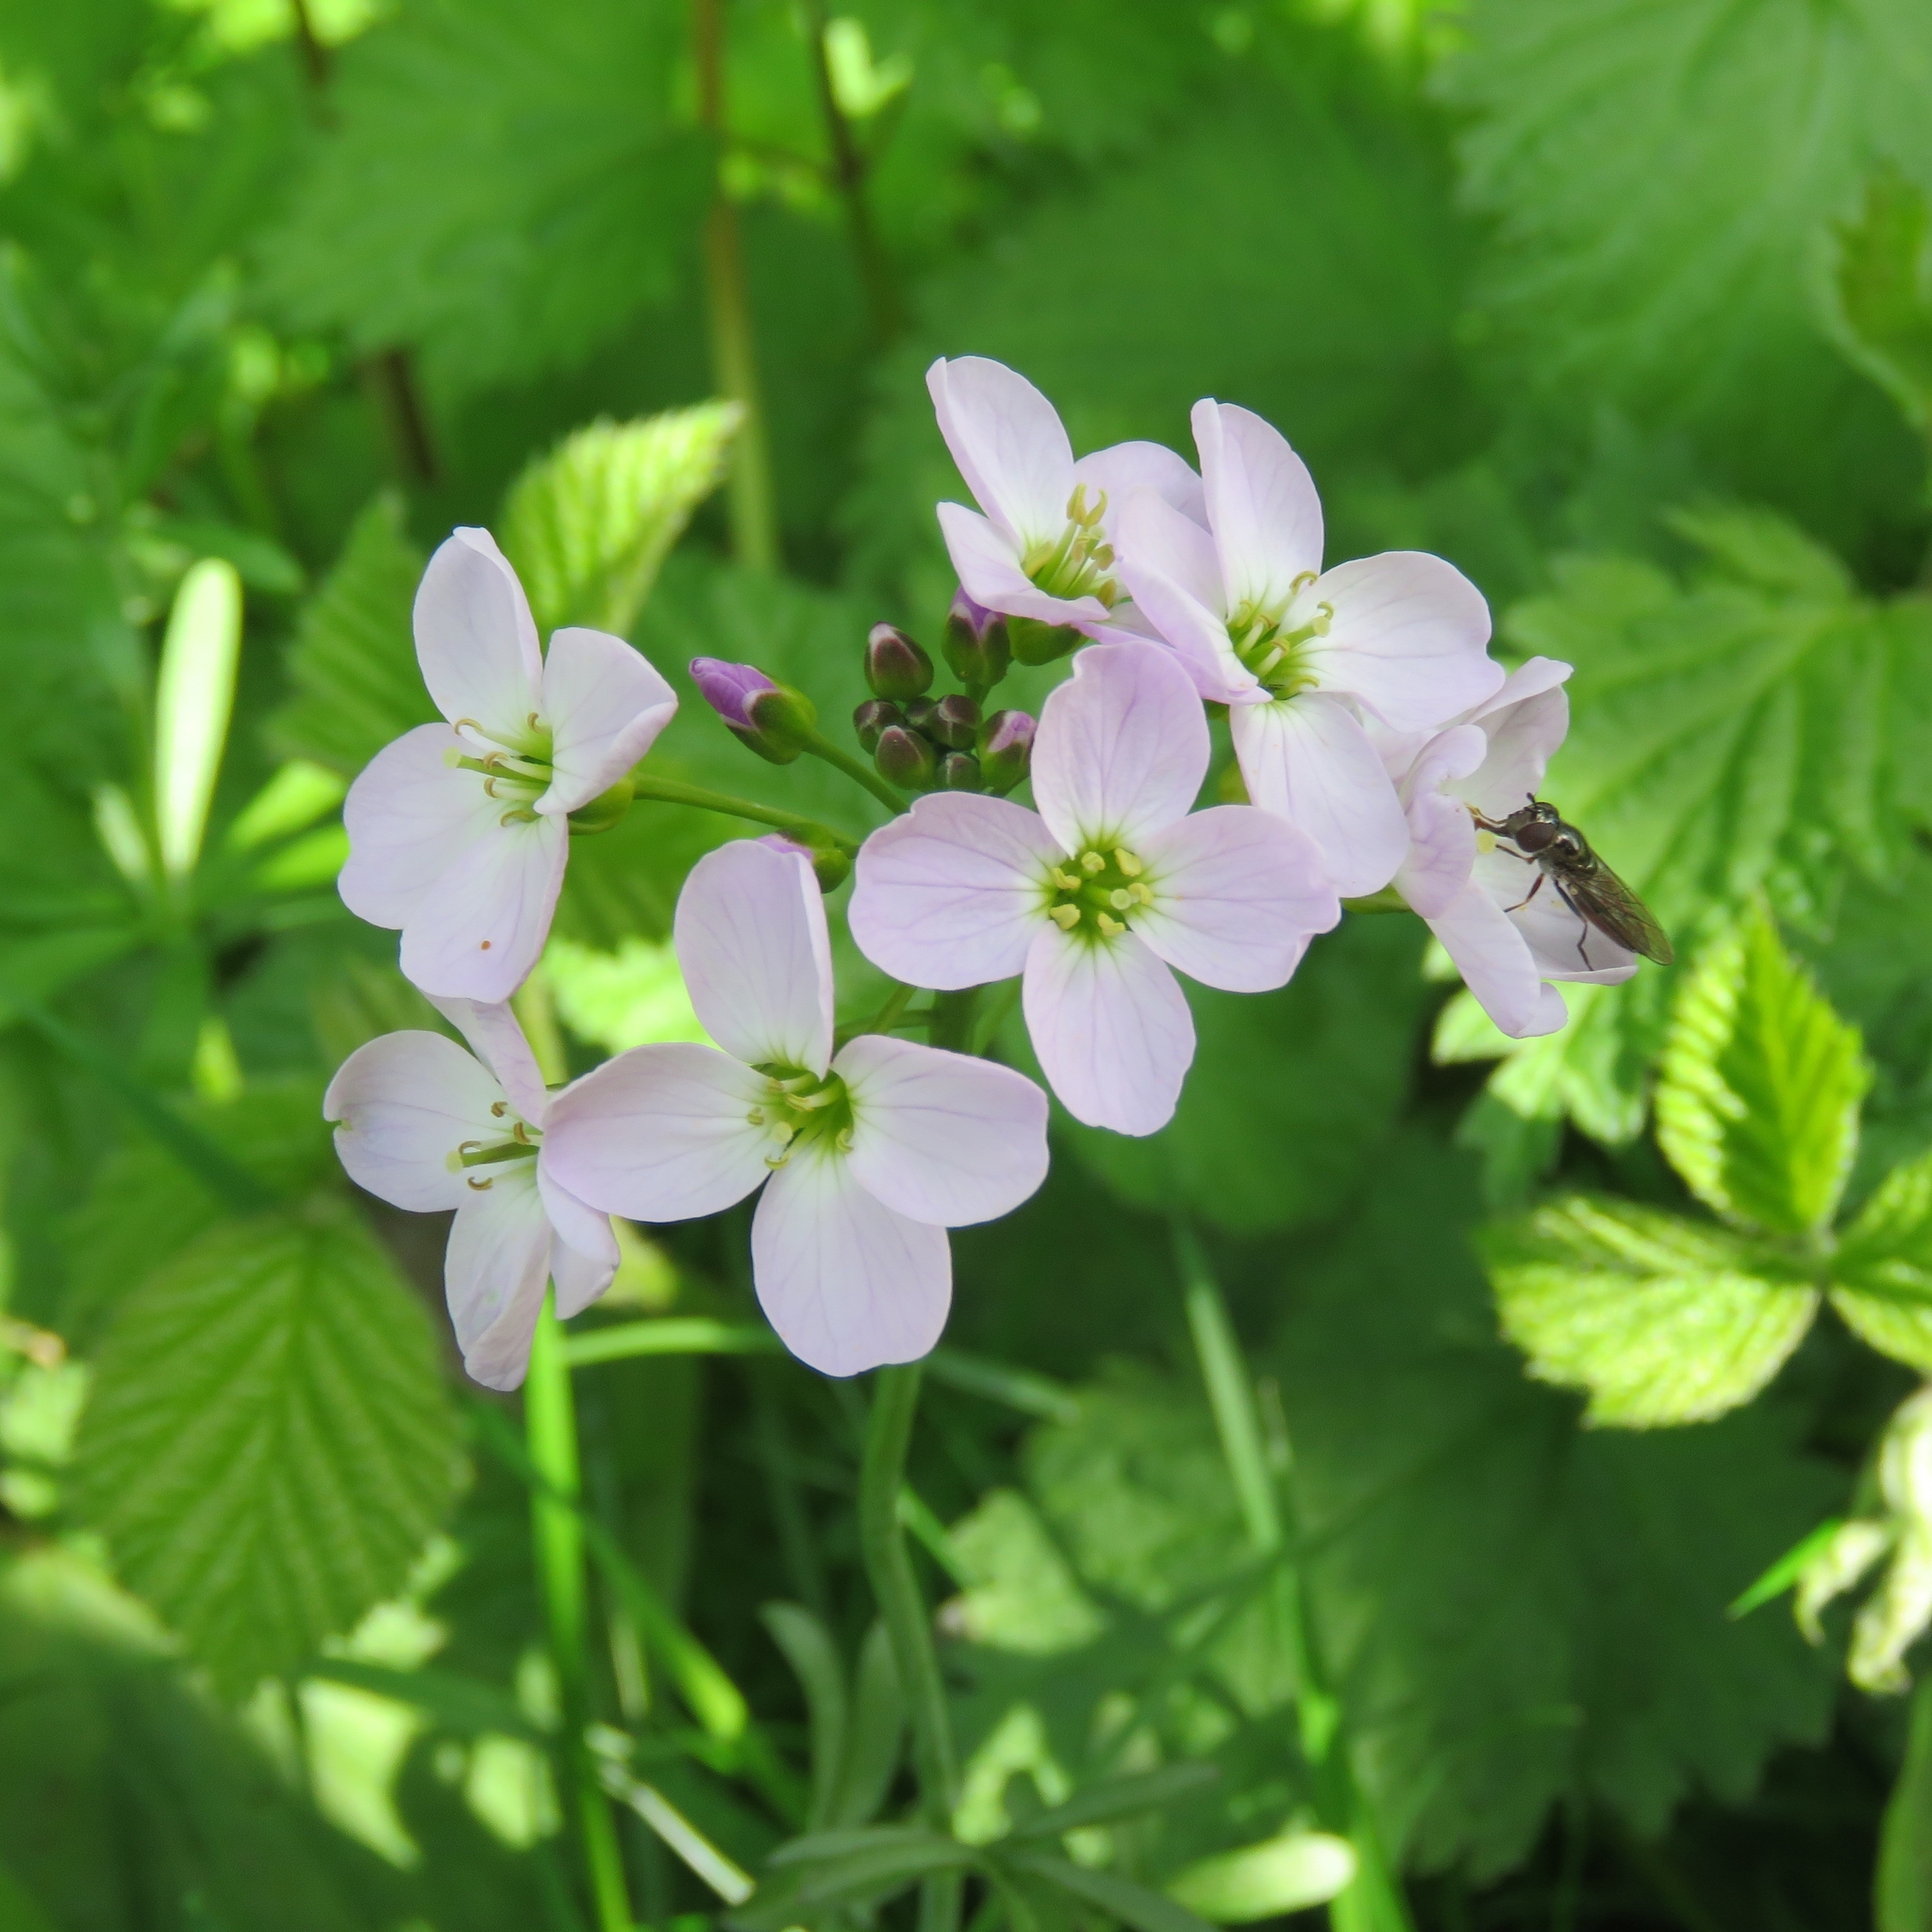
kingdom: Plantae
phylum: Tracheophyta
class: Magnoliopsida
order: Brassicales
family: Brassicaceae
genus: Cardamine
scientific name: Cardamine pratensis
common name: Cuckoo flower
